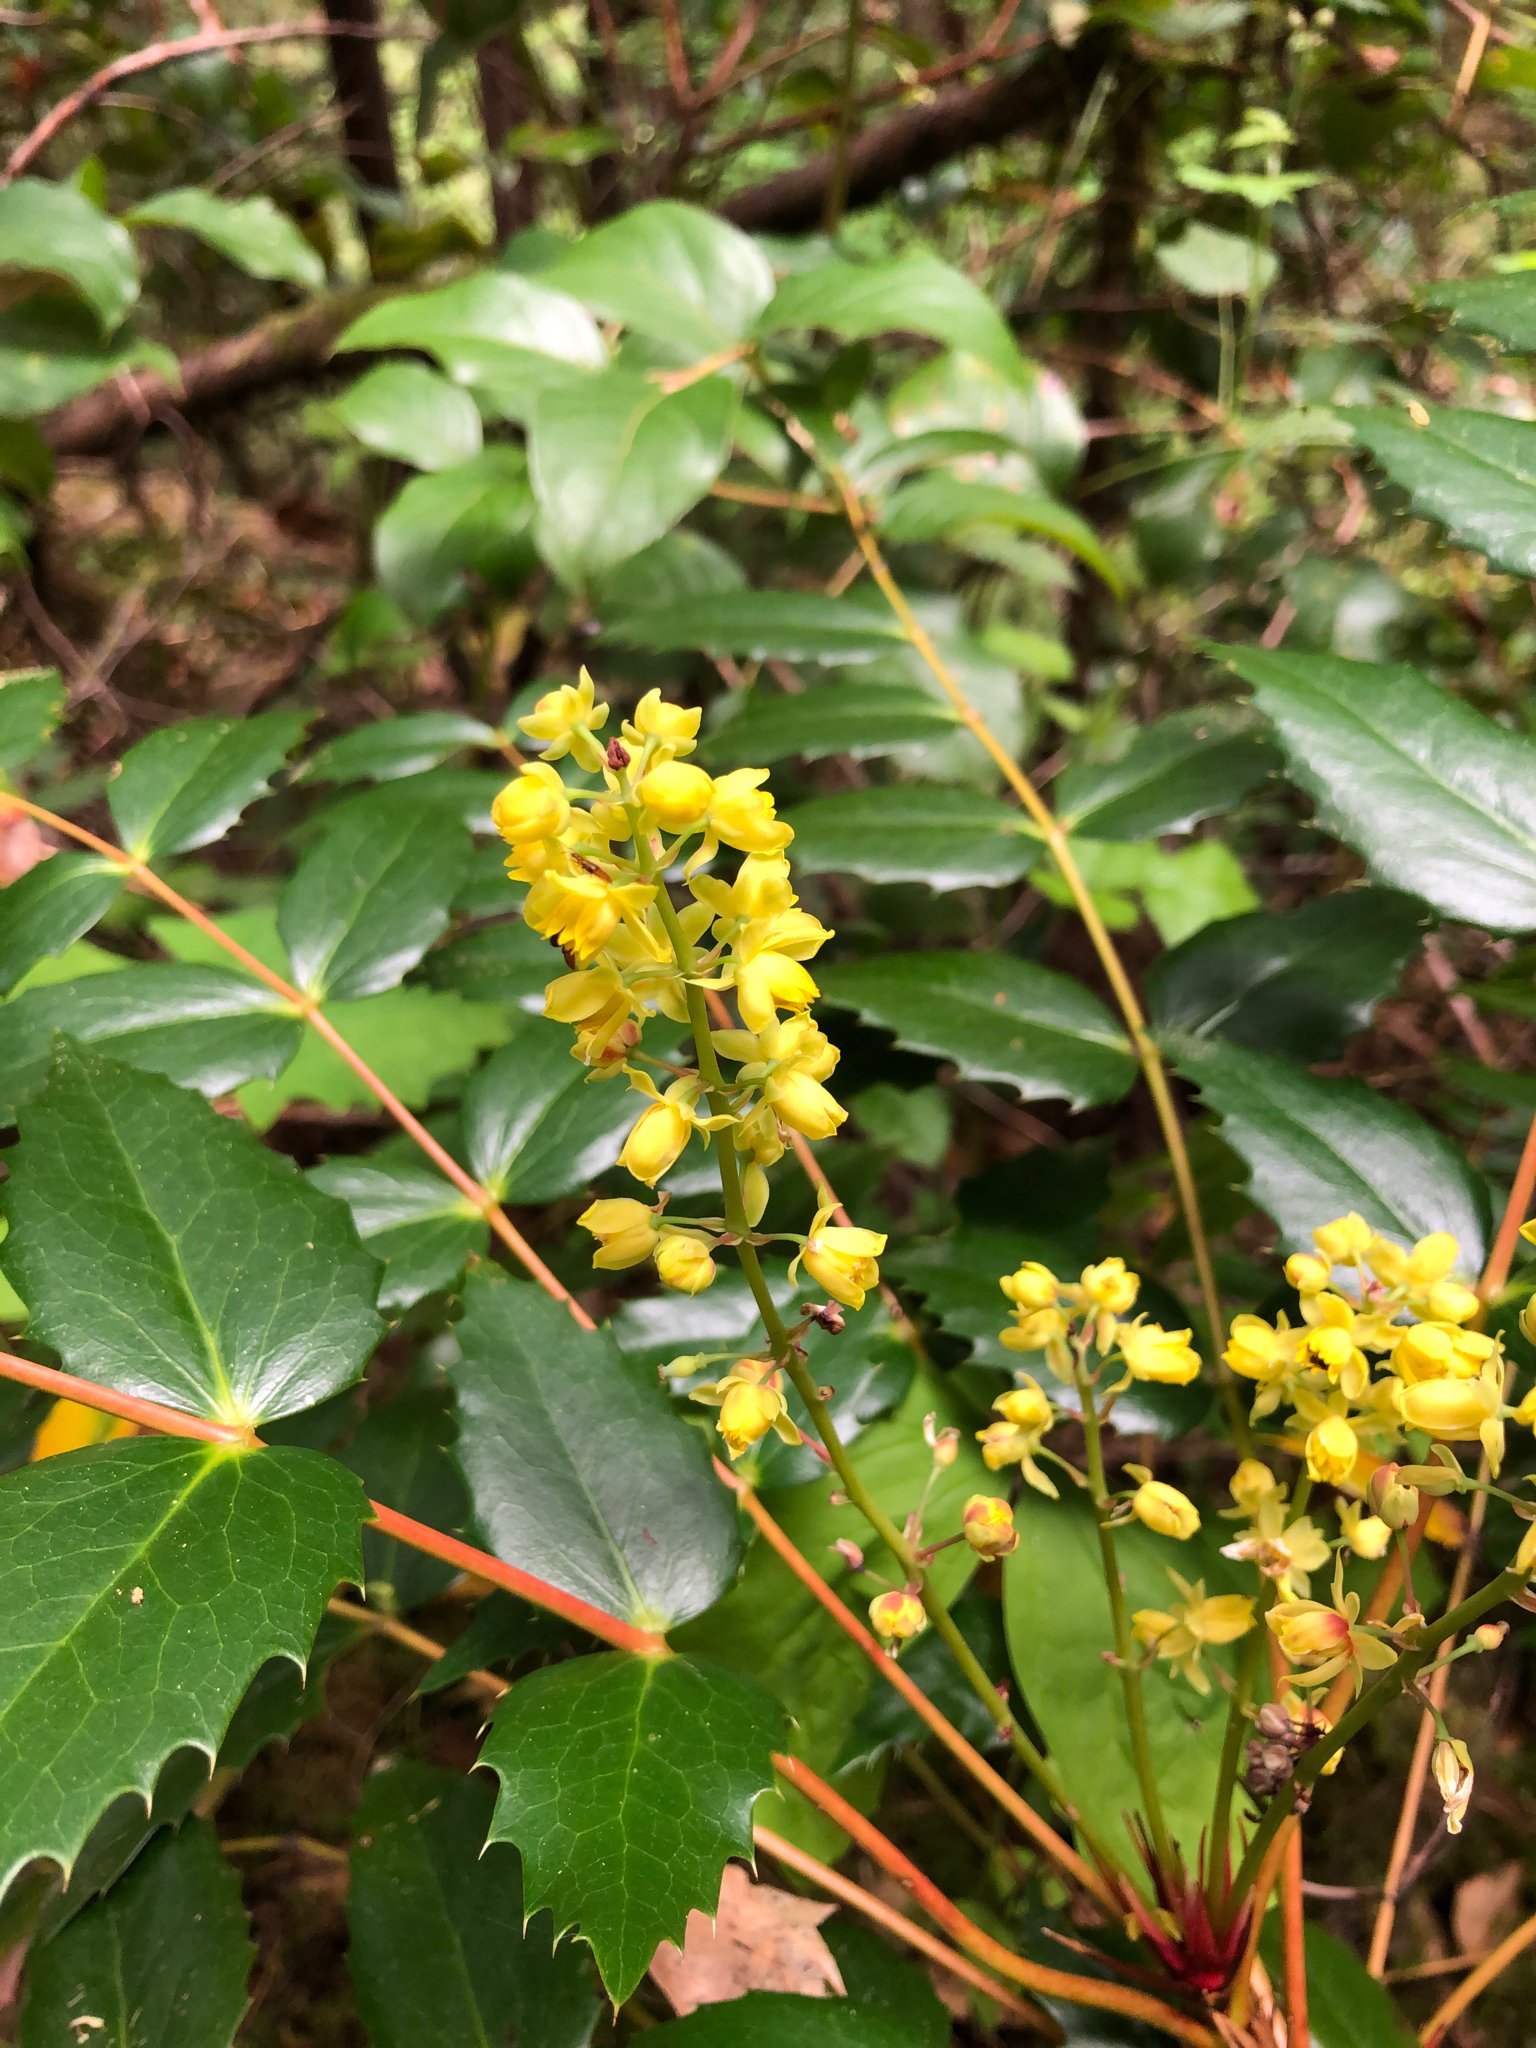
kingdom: Plantae
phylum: Tracheophyta
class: Magnoliopsida
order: Ranunculales
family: Berberidaceae
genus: Mahonia
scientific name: Mahonia nervosa
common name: Cascade oregon-grape
